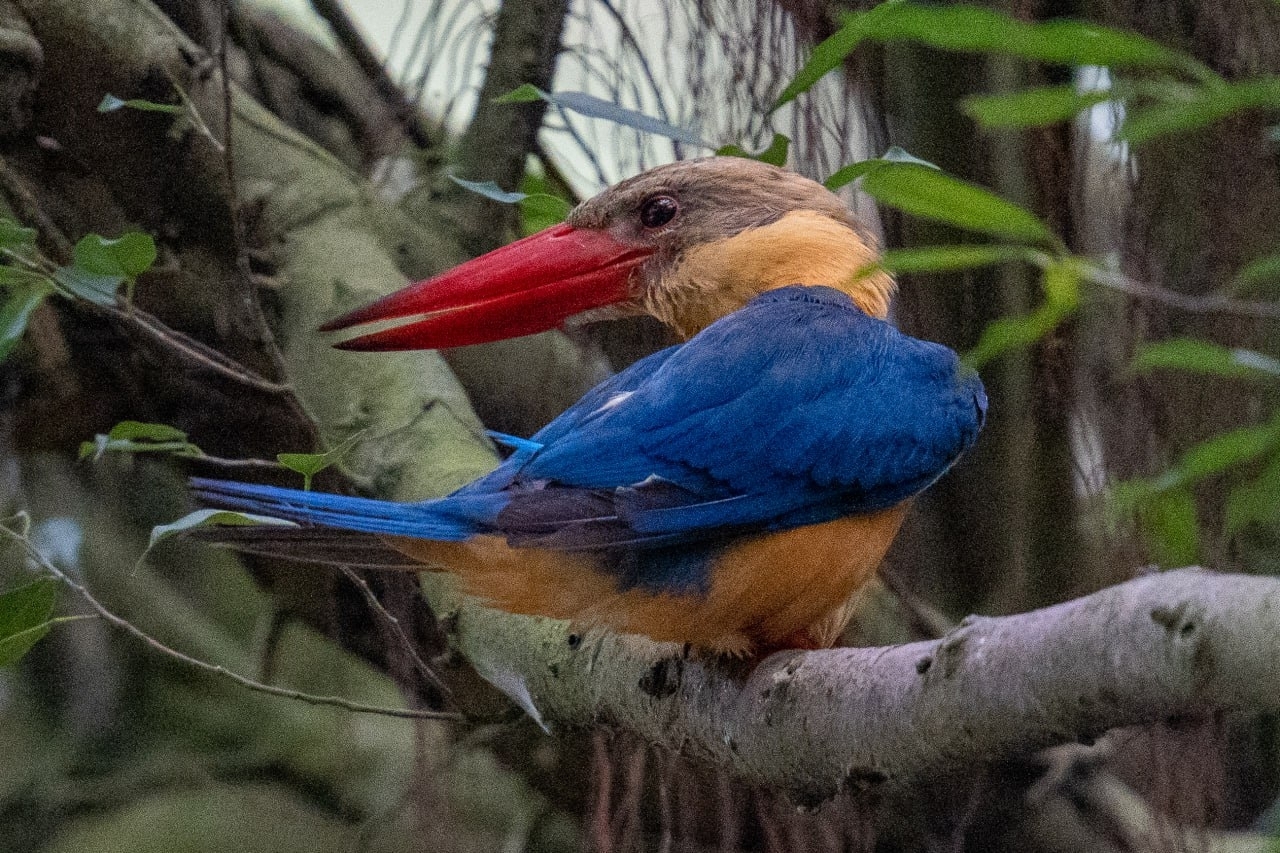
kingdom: Animalia
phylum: Chordata
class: Aves
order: Coraciiformes
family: Alcedinidae
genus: Pelargopsis
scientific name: Pelargopsis capensis
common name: Stork-billed kingfisher
